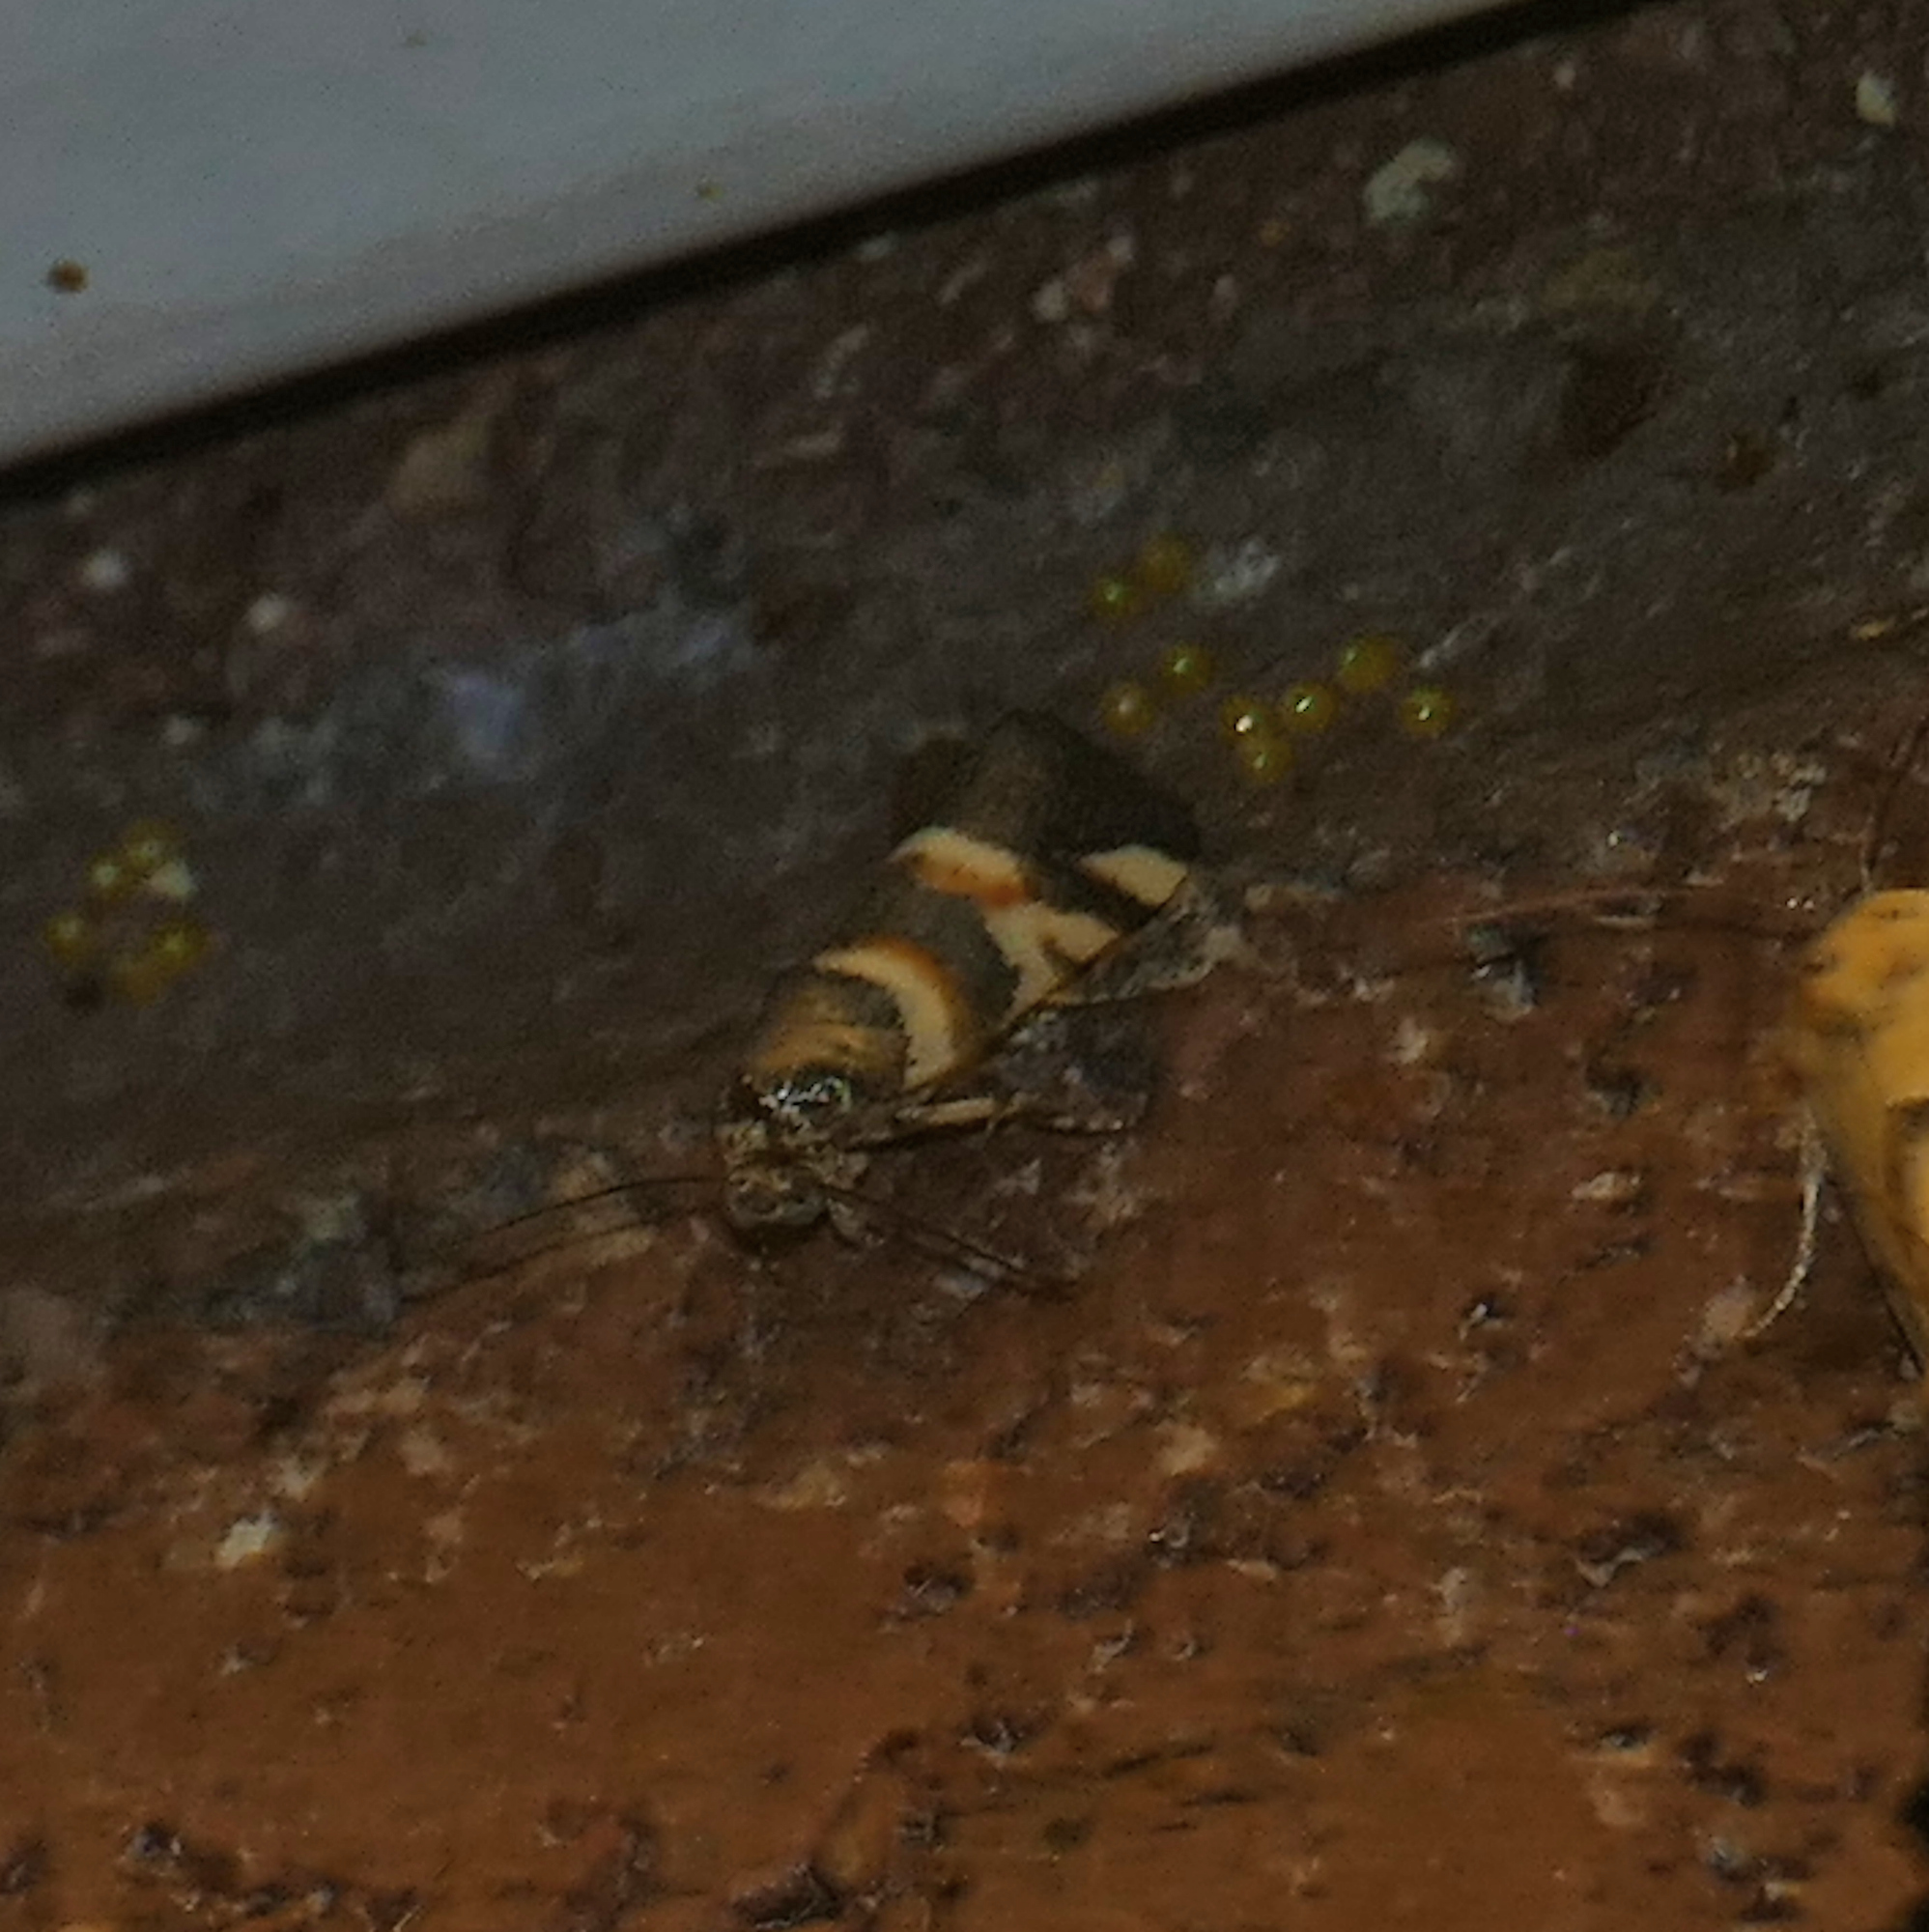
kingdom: Animalia
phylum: Arthropoda
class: Insecta
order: Lepidoptera
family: Noctuidae
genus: Spragueia
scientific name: Spragueia funeralis
